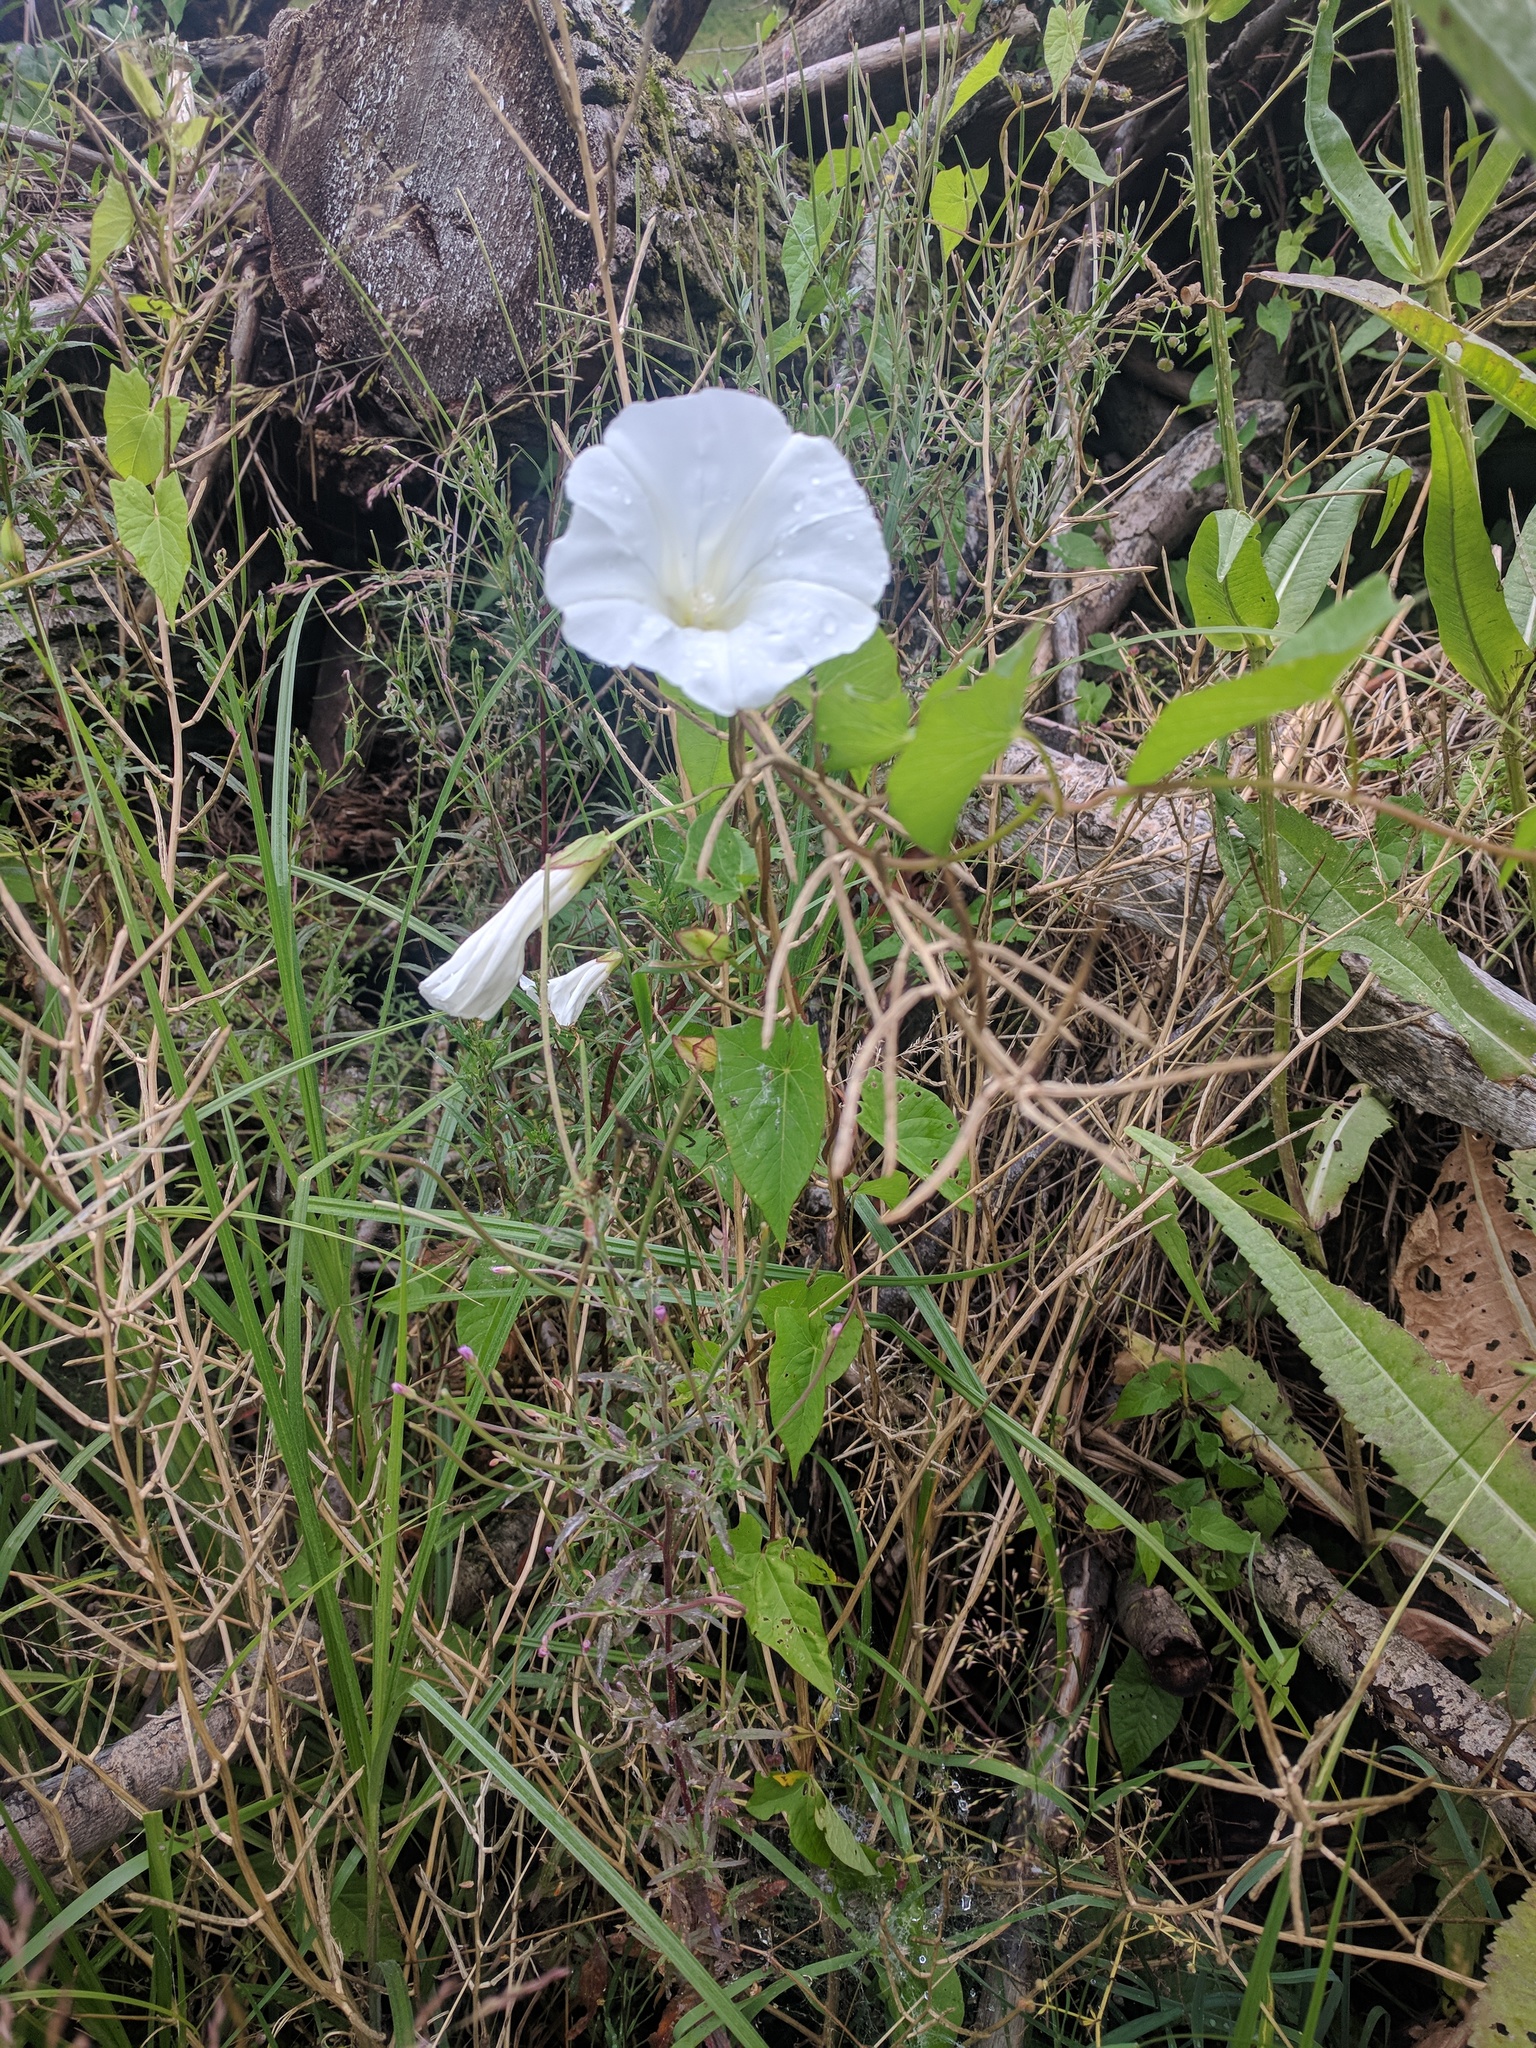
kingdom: Plantae
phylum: Tracheophyta
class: Magnoliopsida
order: Solanales
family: Convolvulaceae
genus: Calystegia
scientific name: Calystegia sepium
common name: Hedge bindweed
